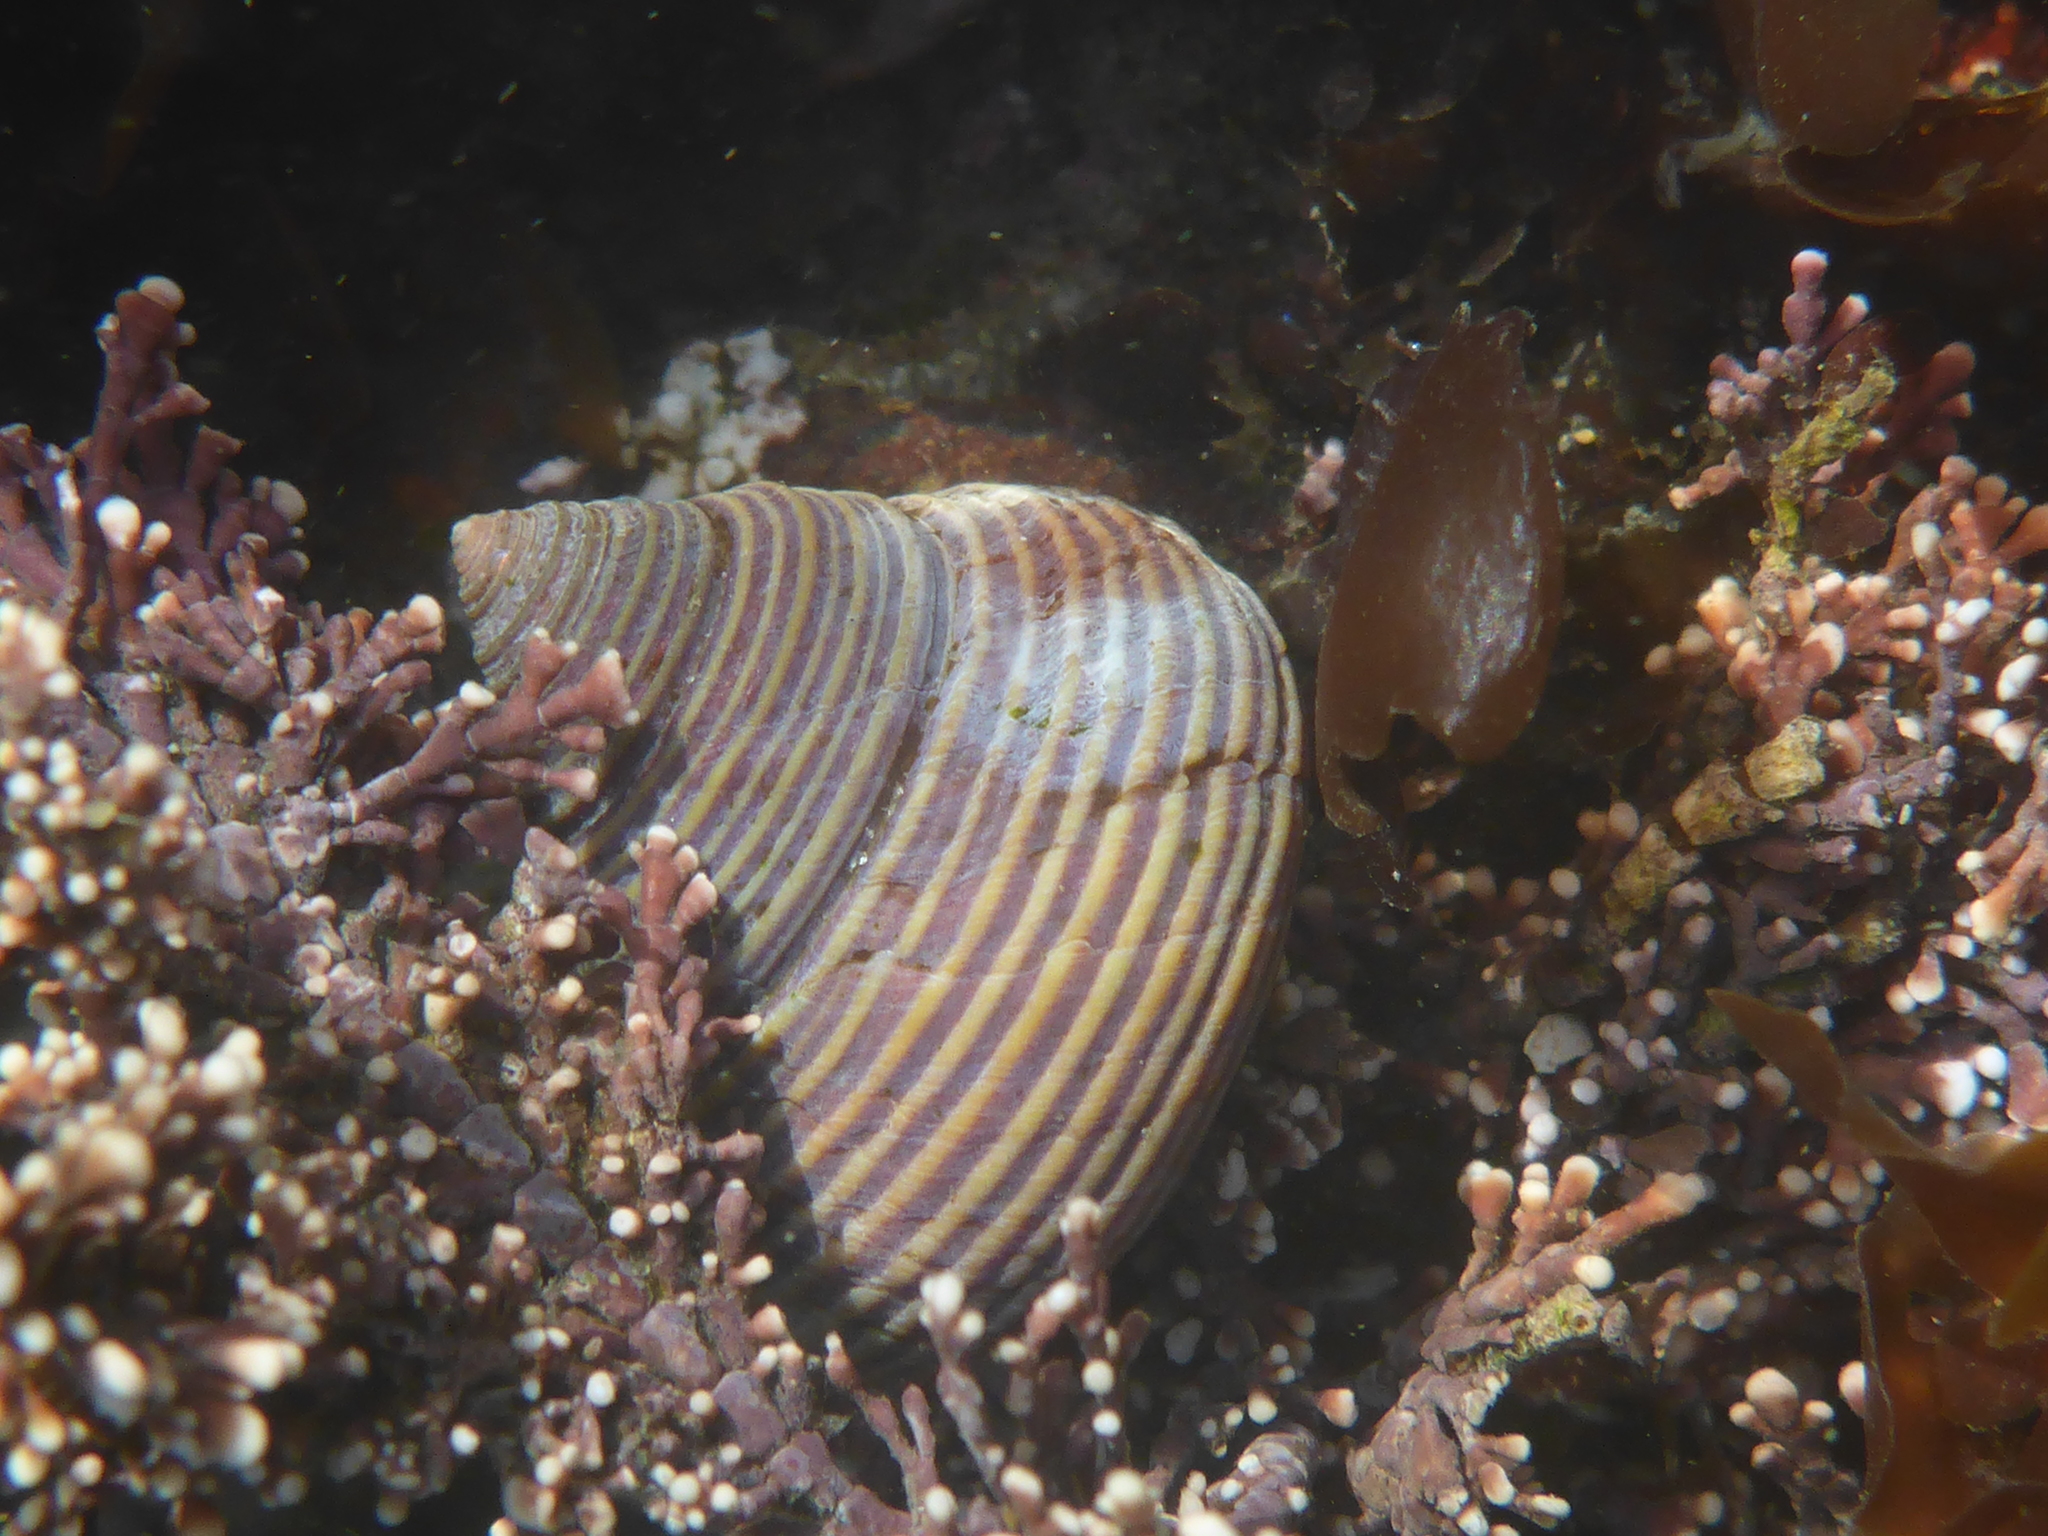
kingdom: Animalia
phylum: Mollusca
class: Gastropoda
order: Trochida
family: Calliostomatidae
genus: Calliostoma
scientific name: Calliostoma ligatum
